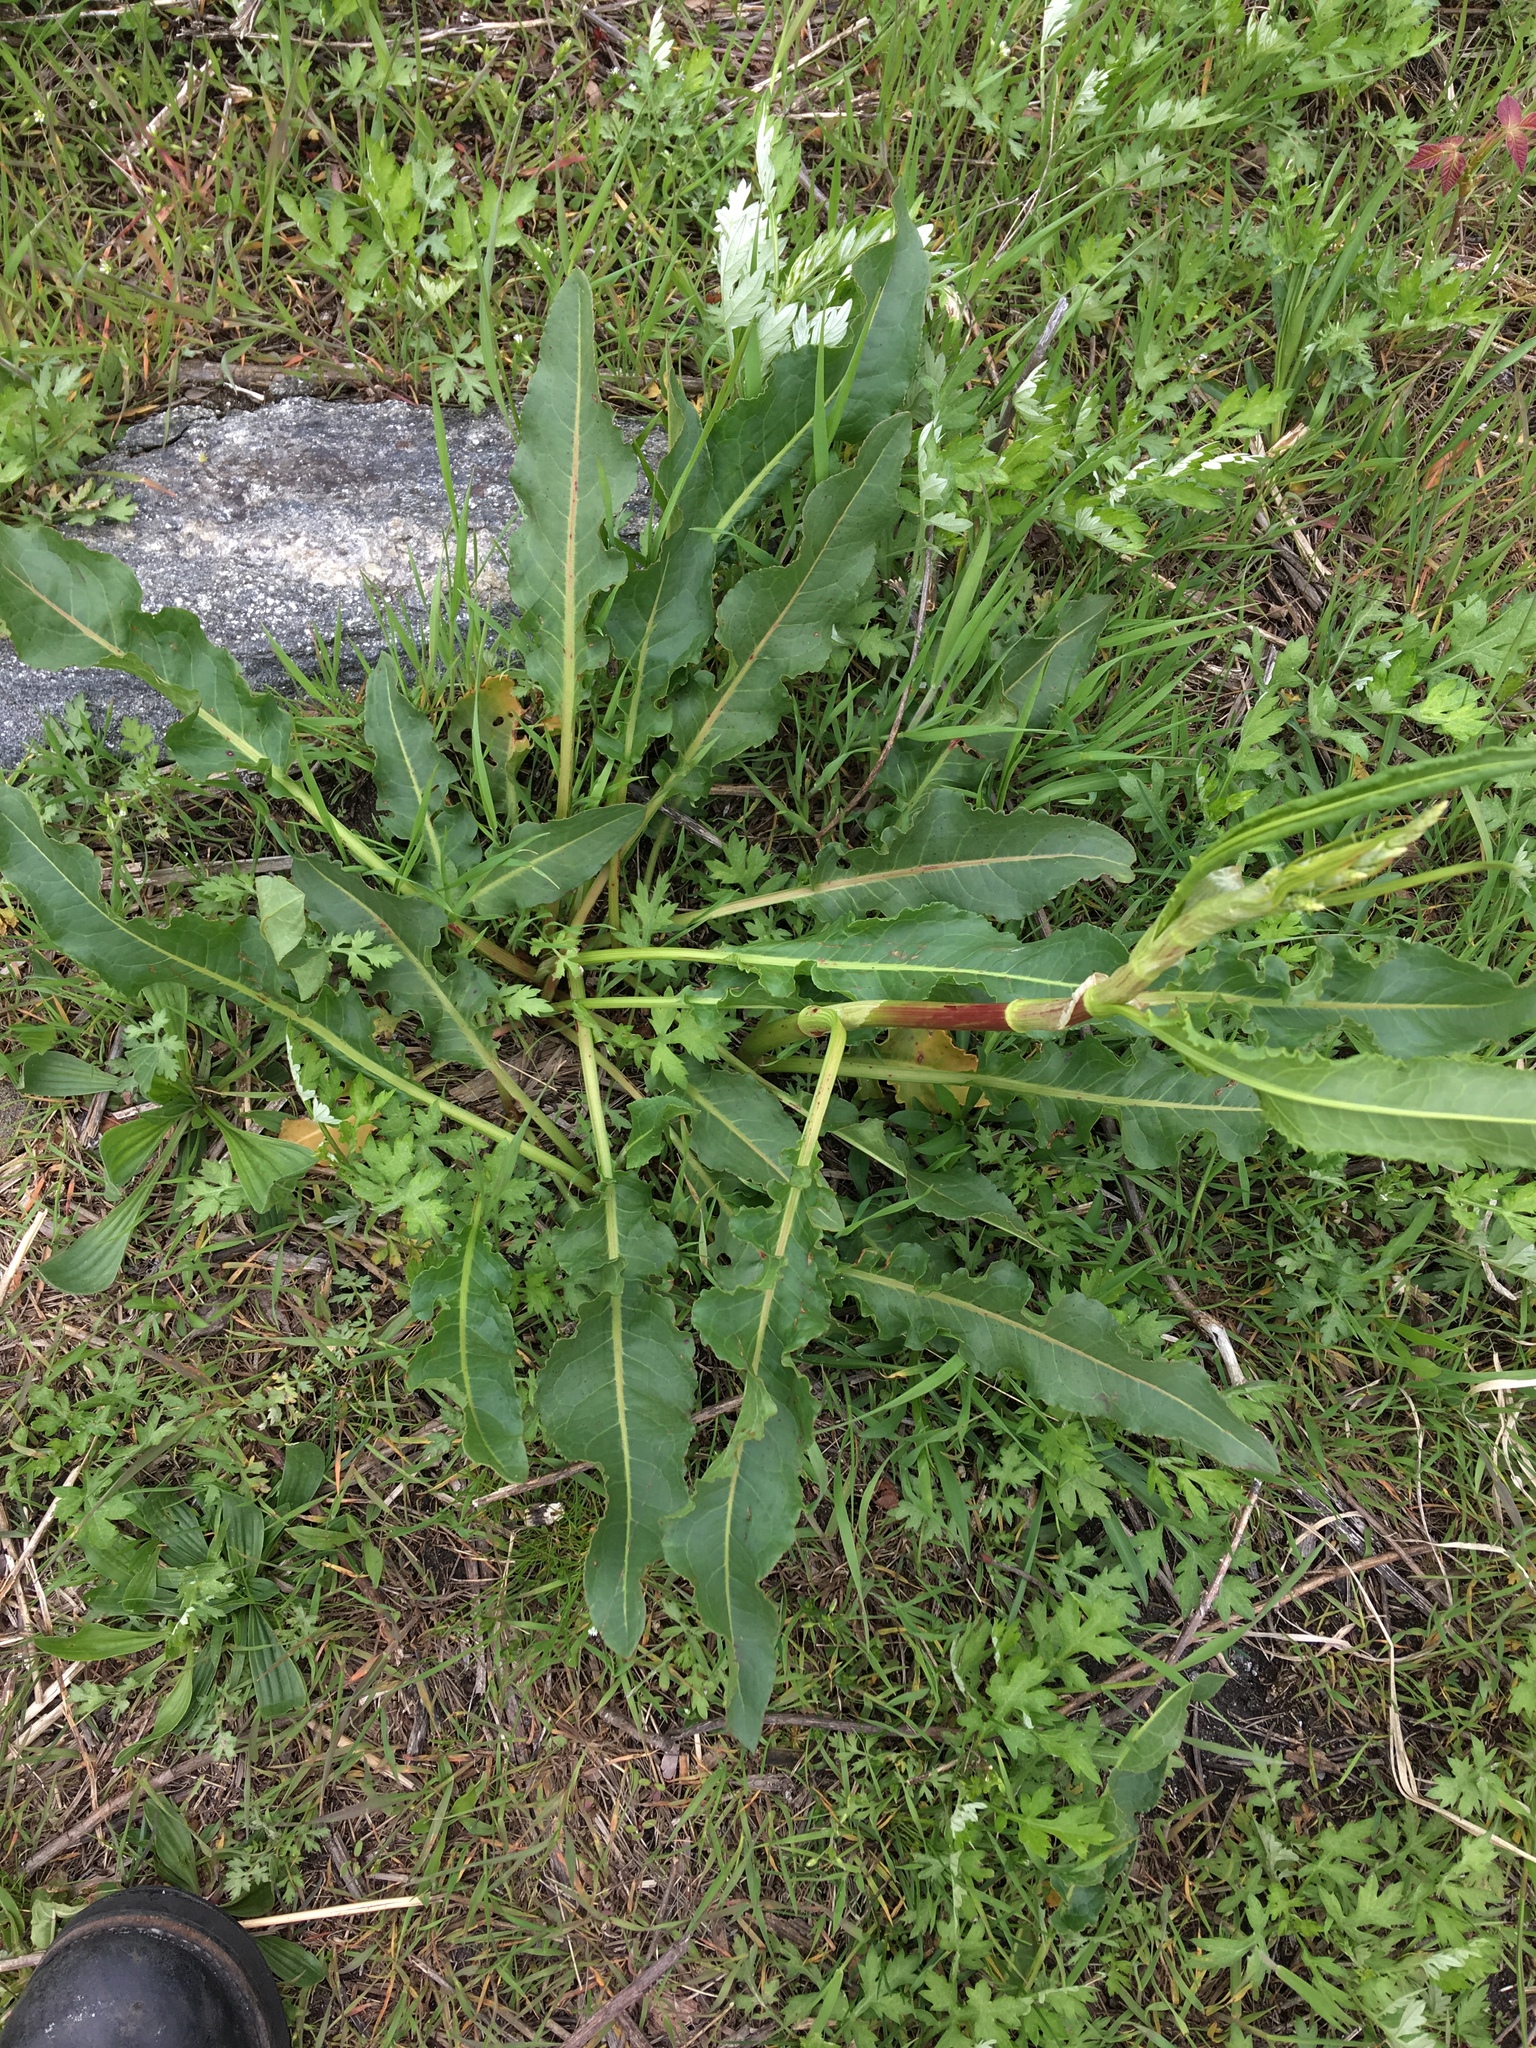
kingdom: Plantae
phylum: Tracheophyta
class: Magnoliopsida
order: Caryophyllales
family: Polygonaceae
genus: Rumex
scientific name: Rumex crispus
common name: Curled dock
